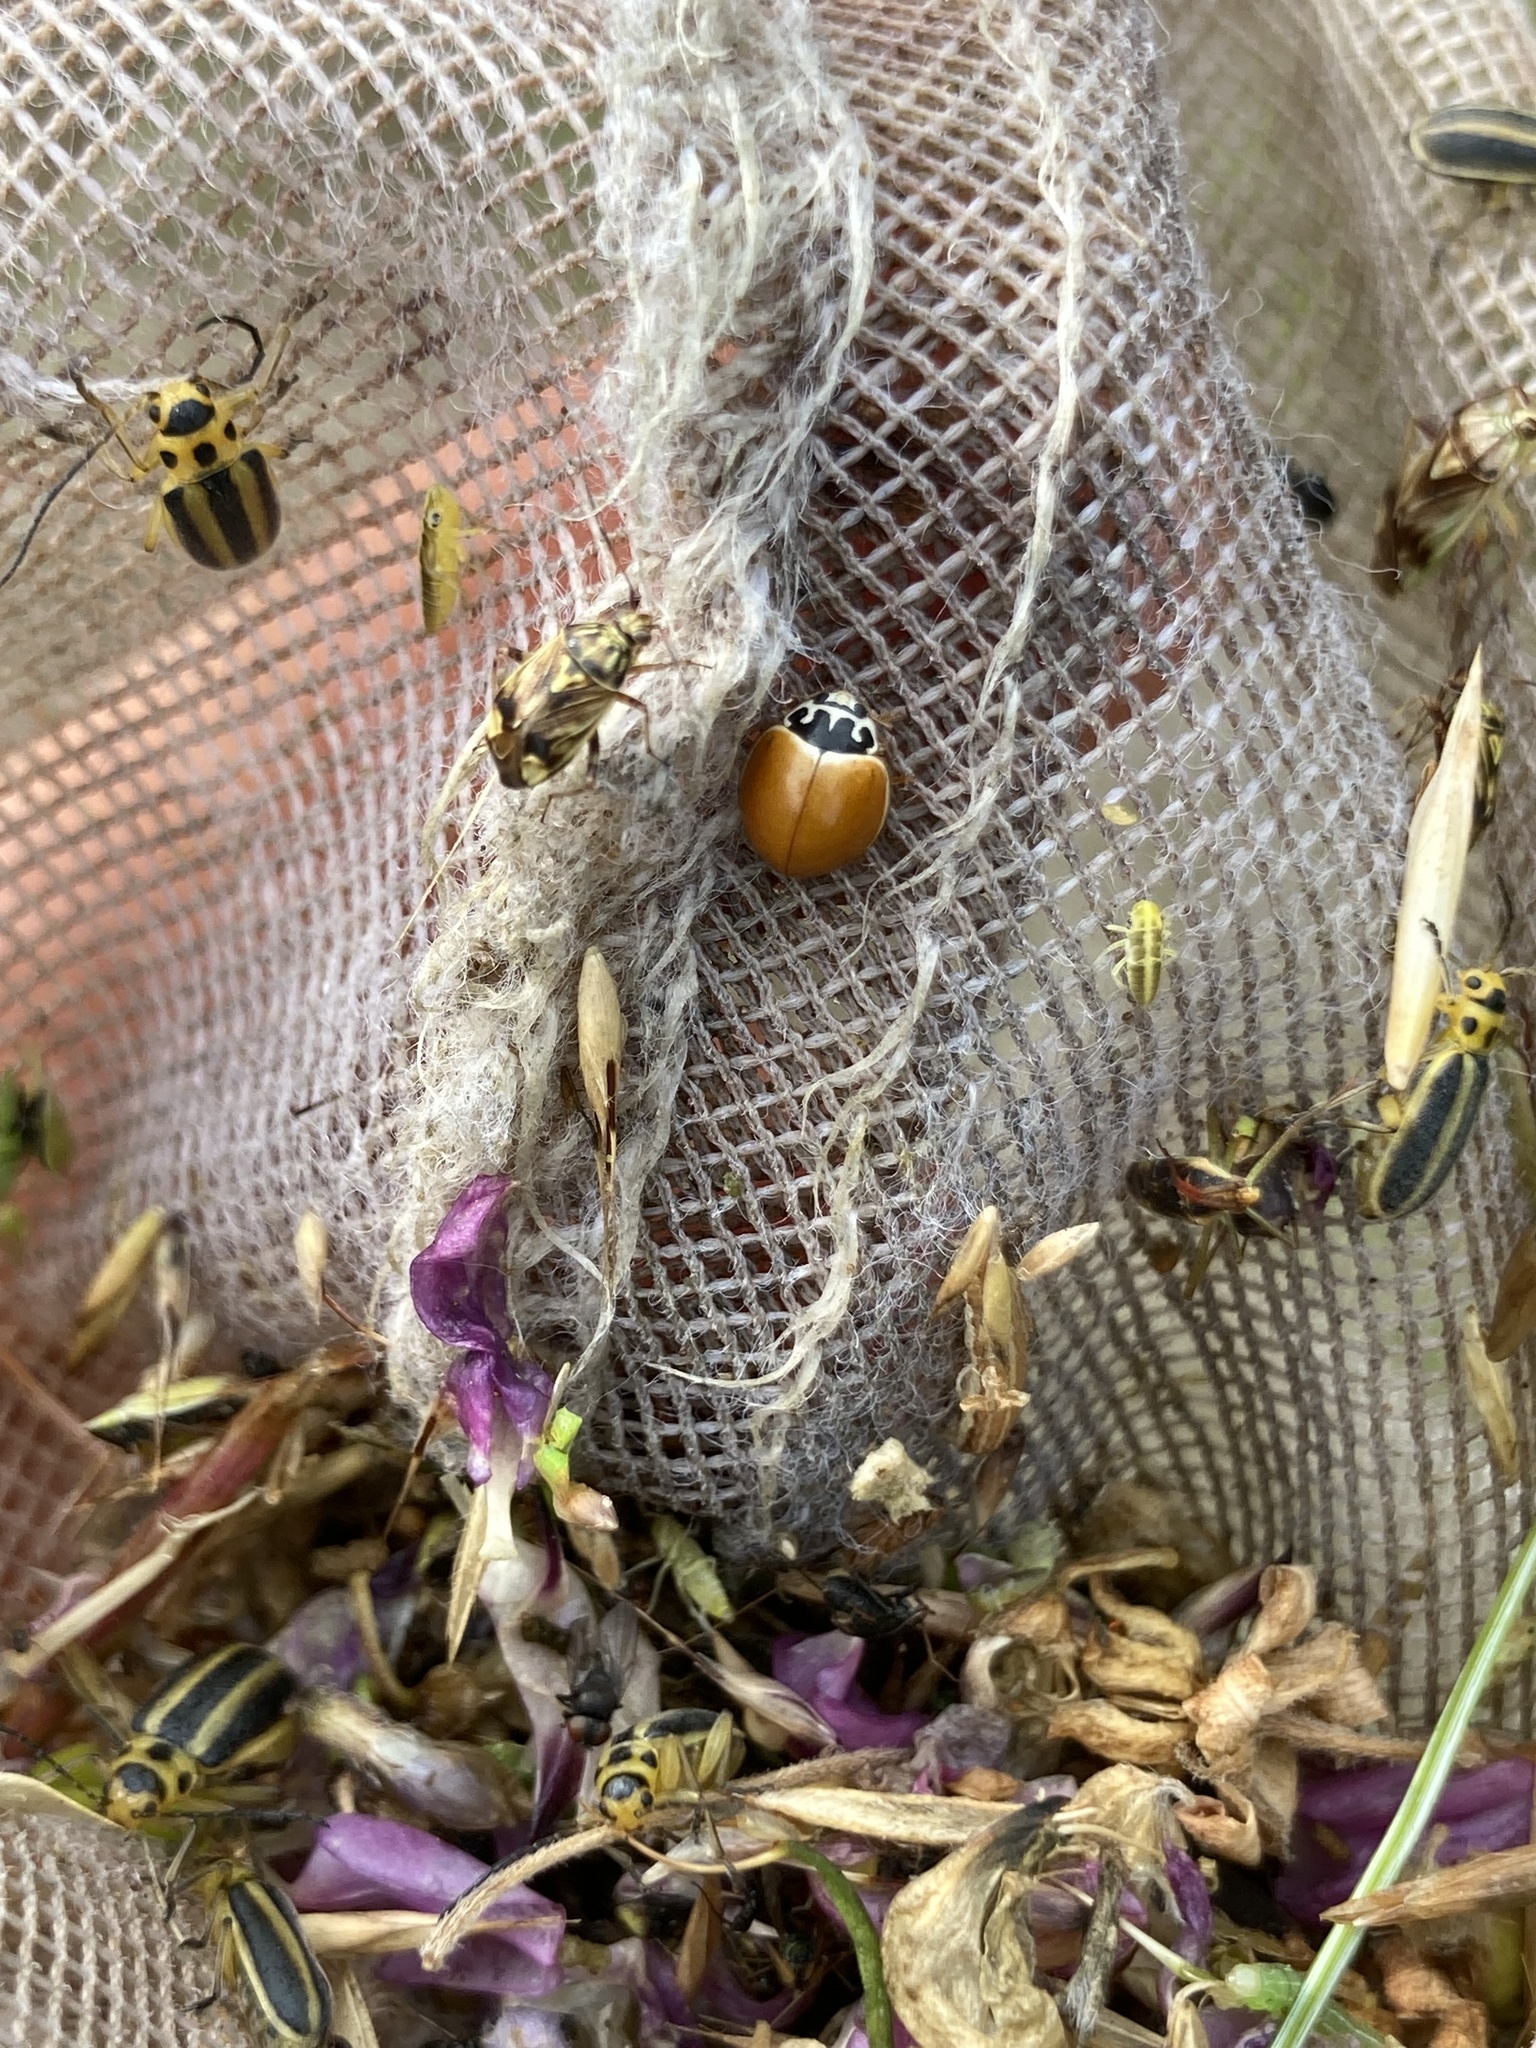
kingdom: Animalia
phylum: Arthropoda
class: Insecta
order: Coleoptera
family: Coccinellidae
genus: Cycloneda
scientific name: Cycloneda munda
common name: Polished lady beetle
